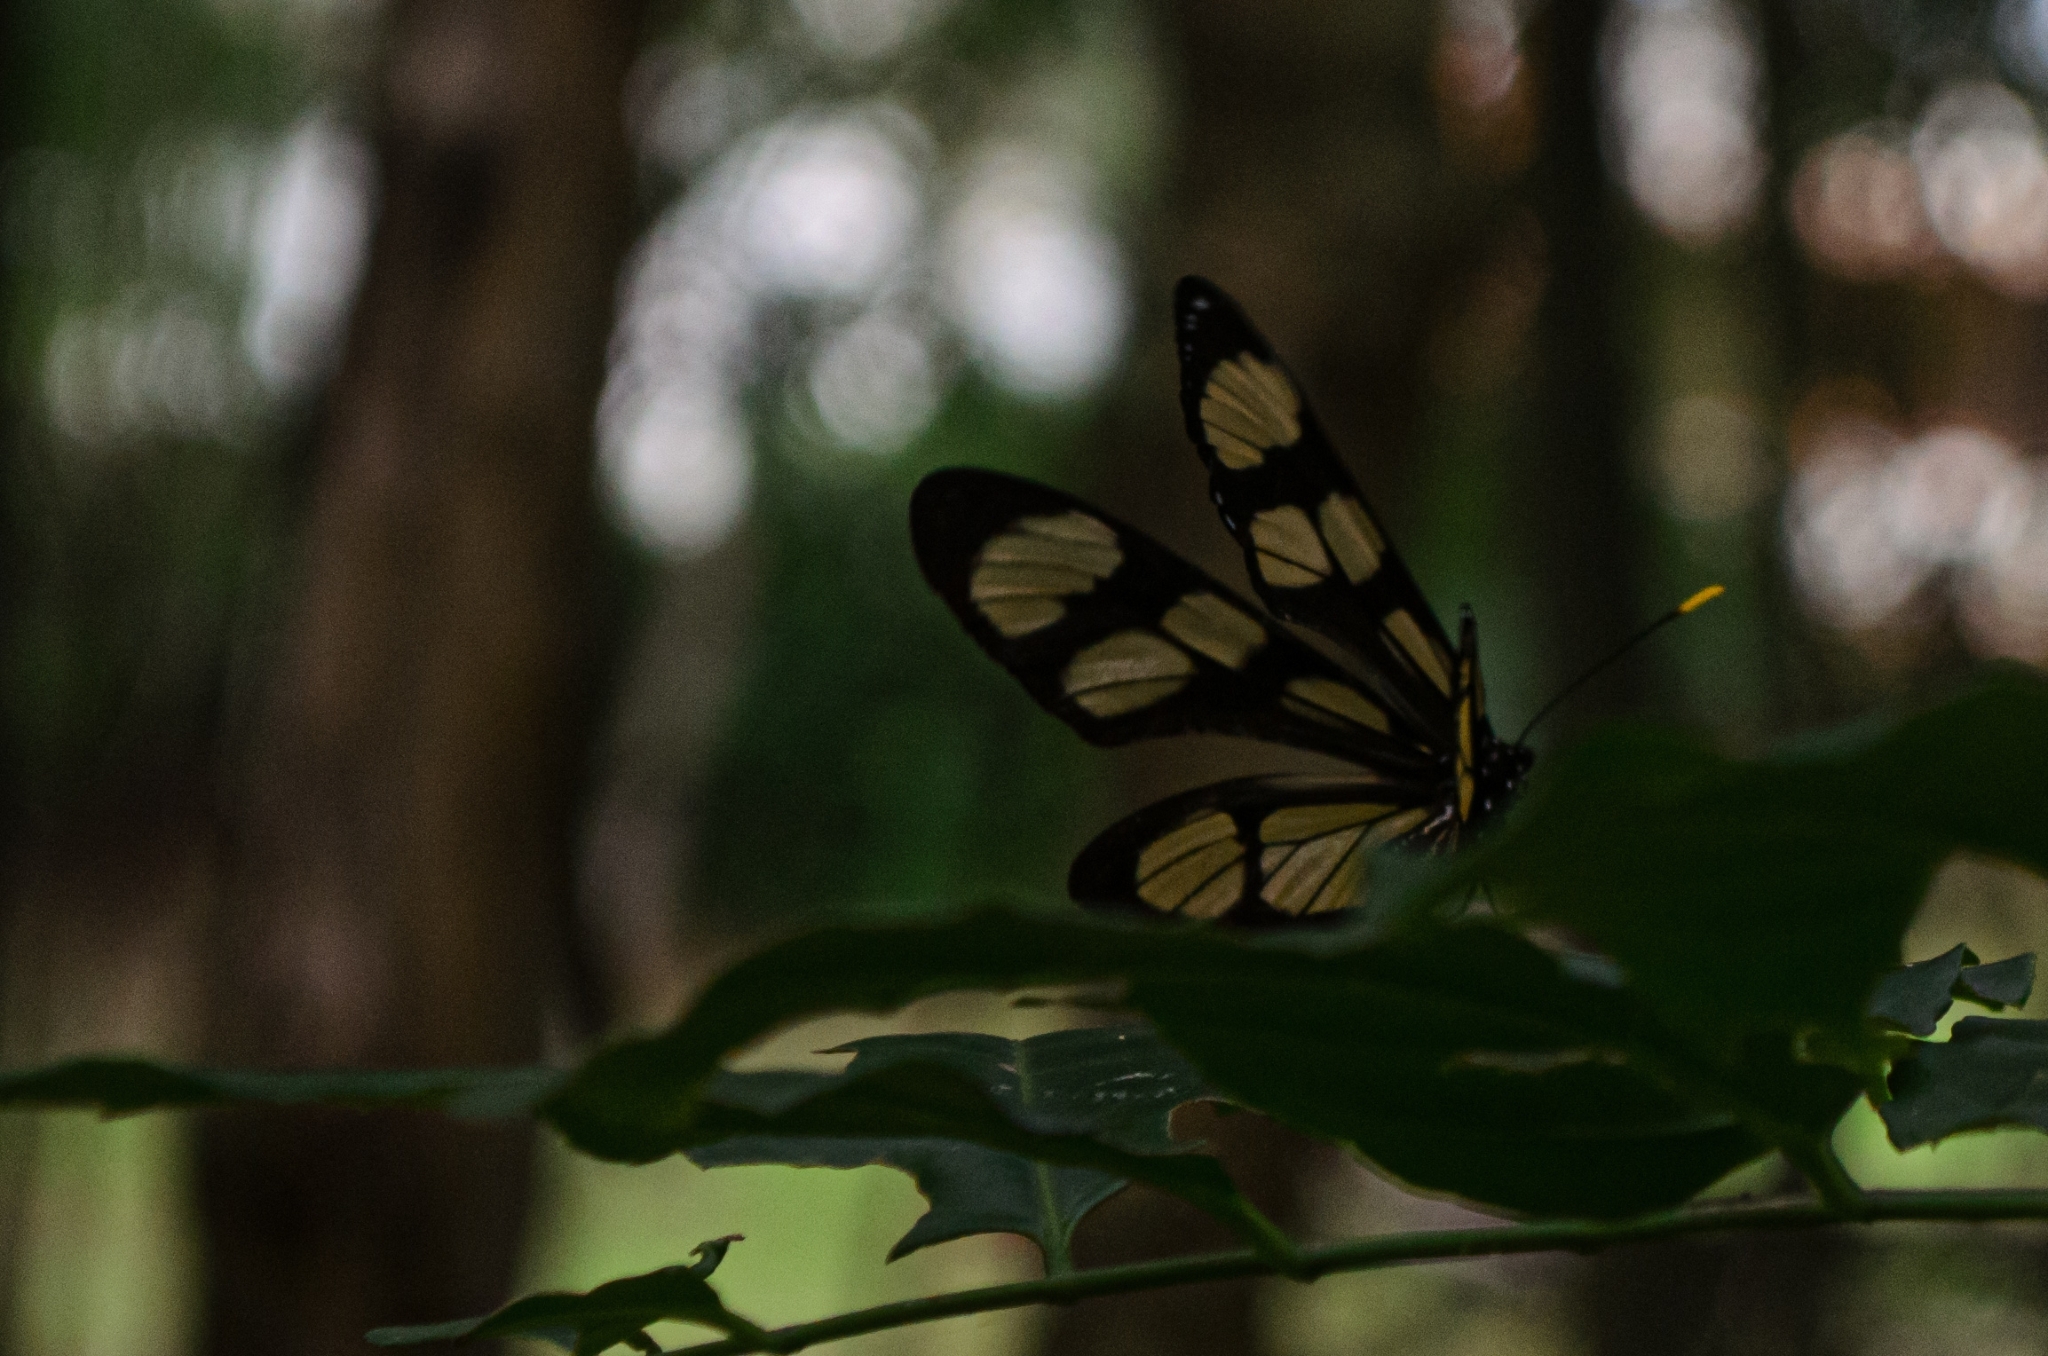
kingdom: Animalia
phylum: Arthropoda
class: Insecta
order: Lepidoptera
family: Nymphalidae
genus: Thyridia
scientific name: Thyridia psidii
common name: Melantho tigerwing
